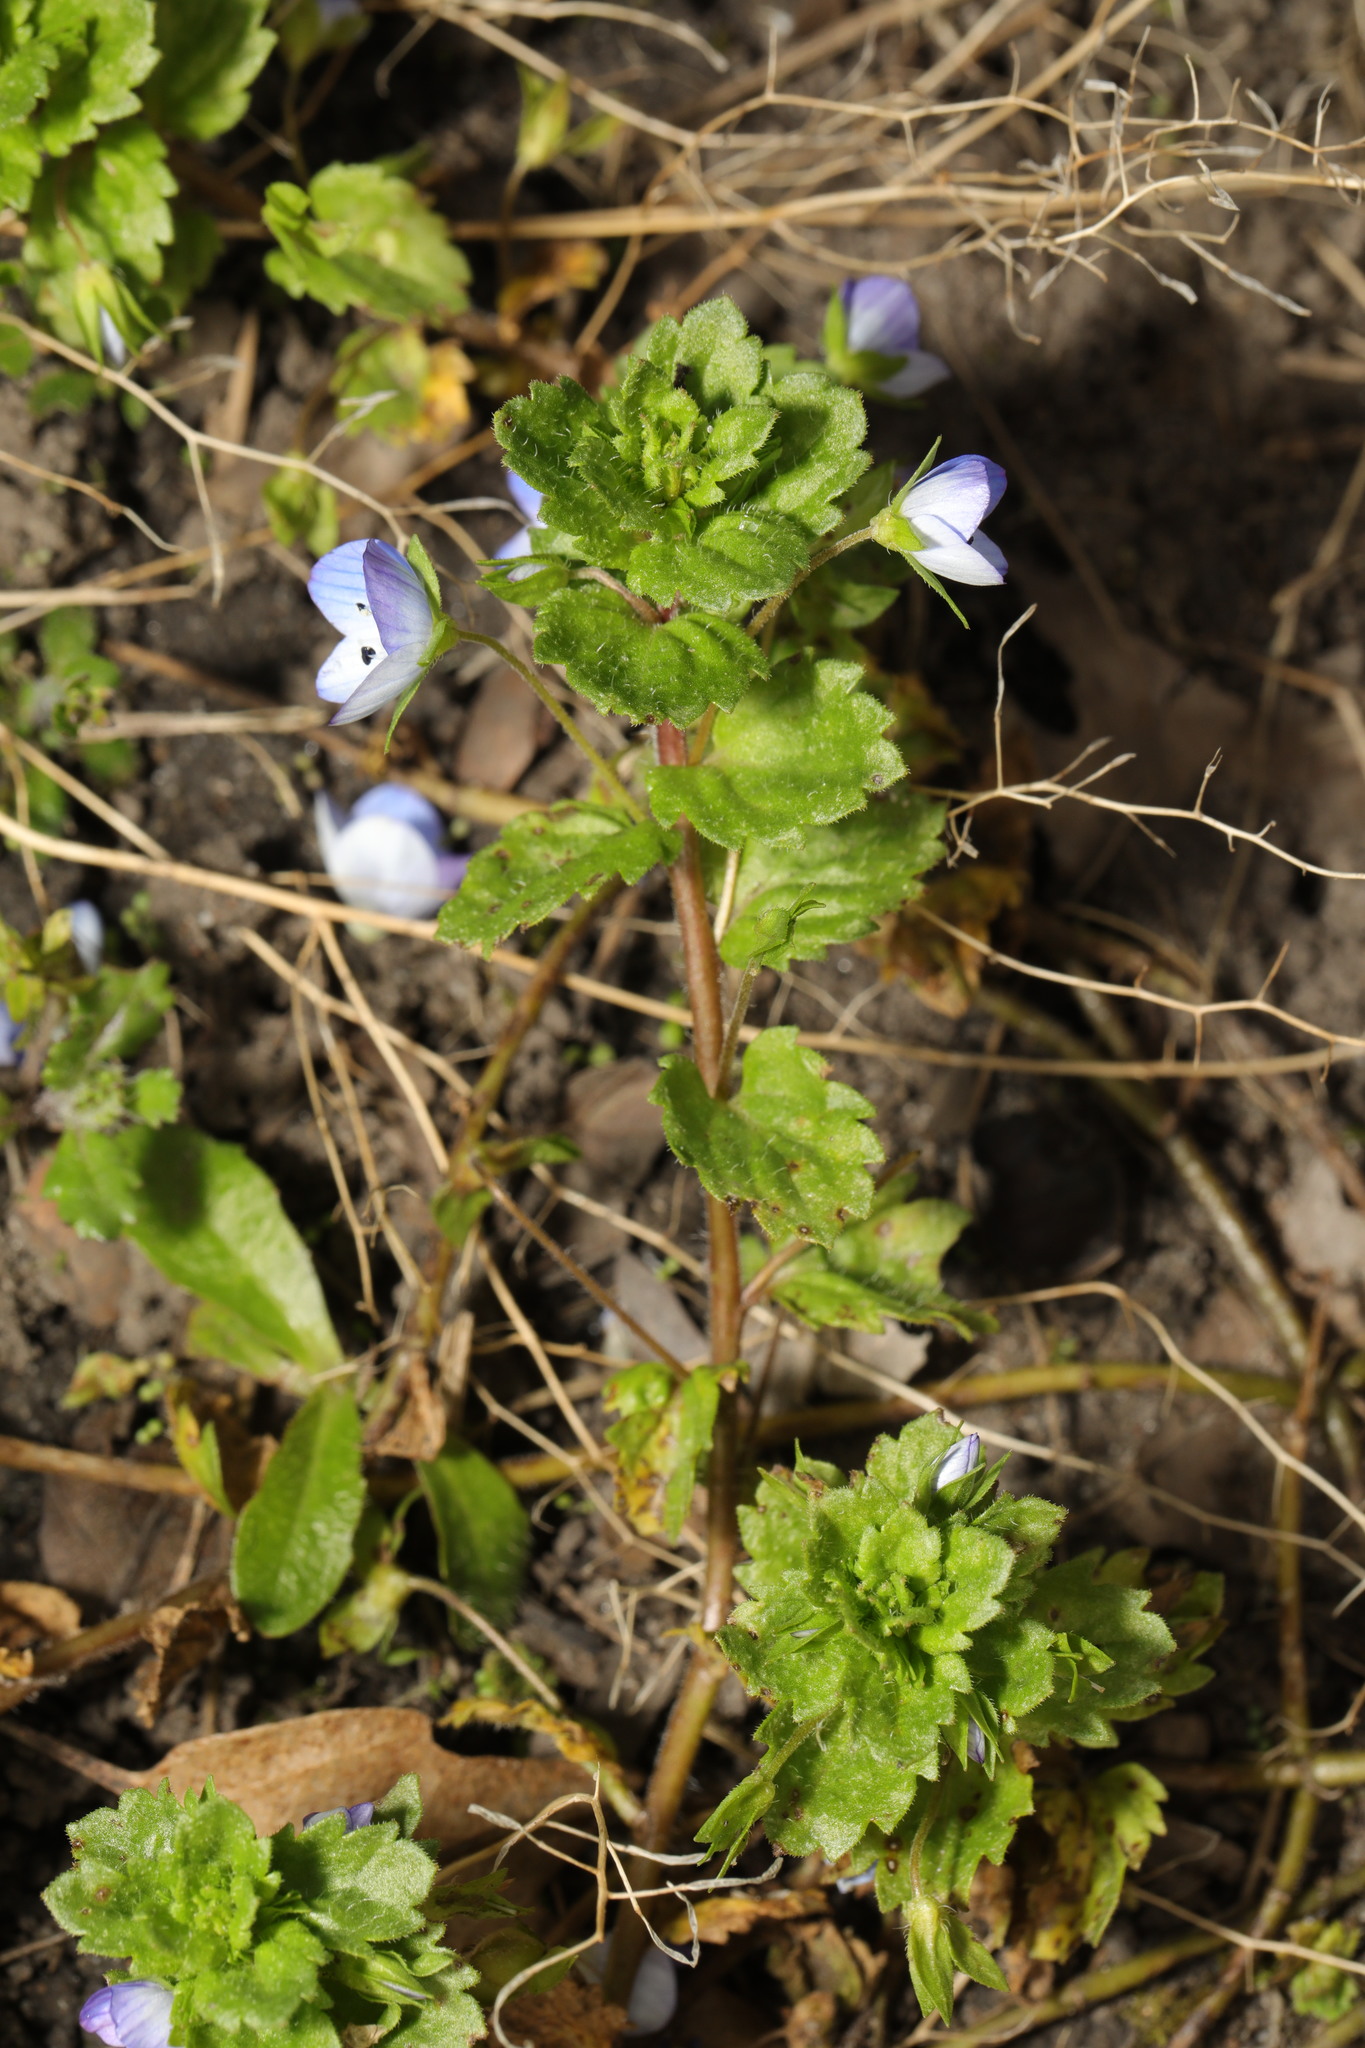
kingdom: Plantae
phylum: Tracheophyta
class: Magnoliopsida
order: Lamiales
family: Plantaginaceae
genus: Veronica
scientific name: Veronica persica
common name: Common field-speedwell
